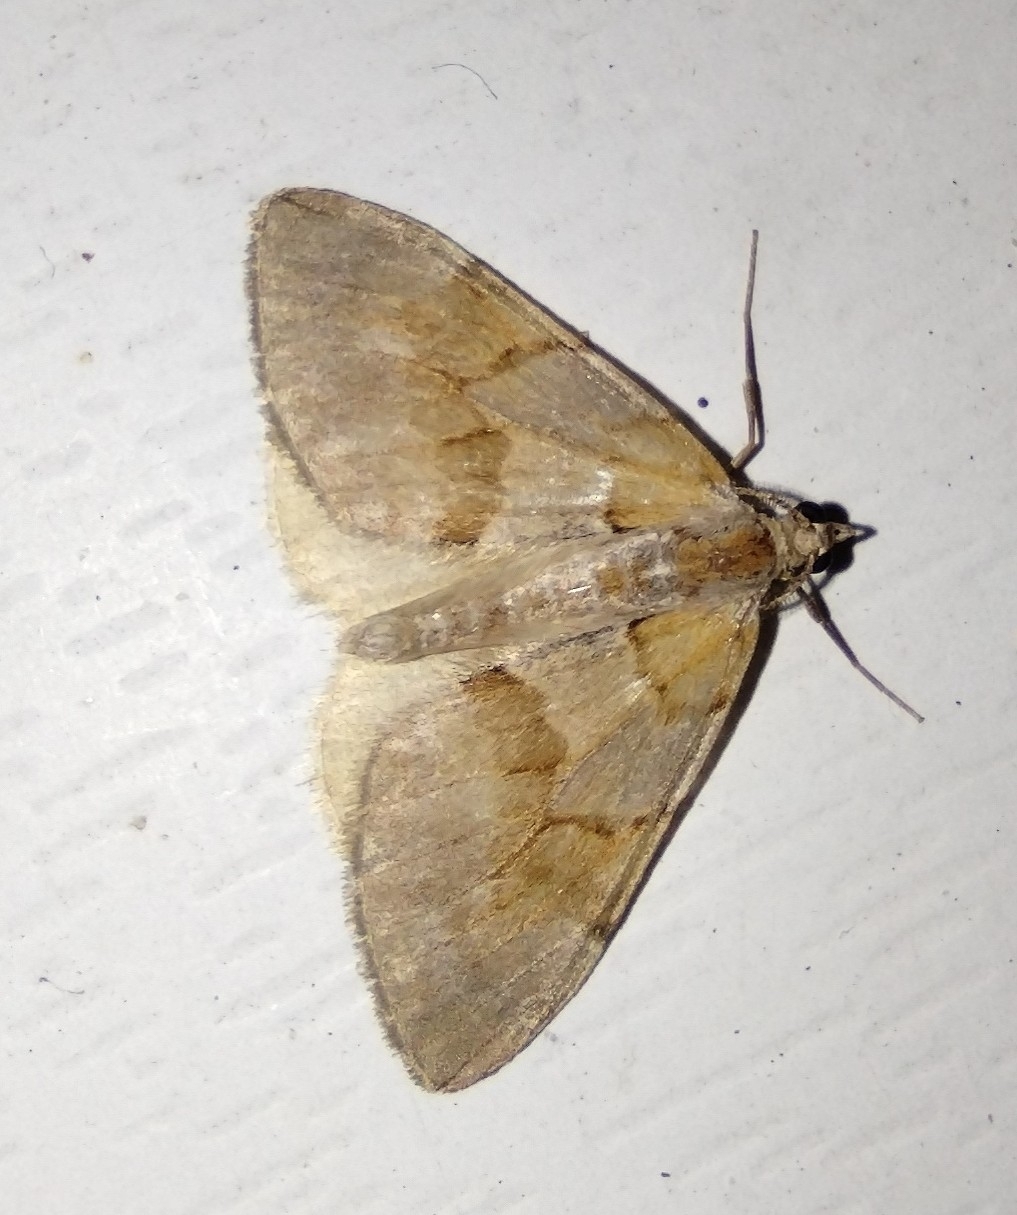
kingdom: Animalia
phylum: Arthropoda
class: Insecta
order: Lepidoptera
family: Geometridae
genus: Pennithera
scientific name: Pennithera firmata
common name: Pine carpet
